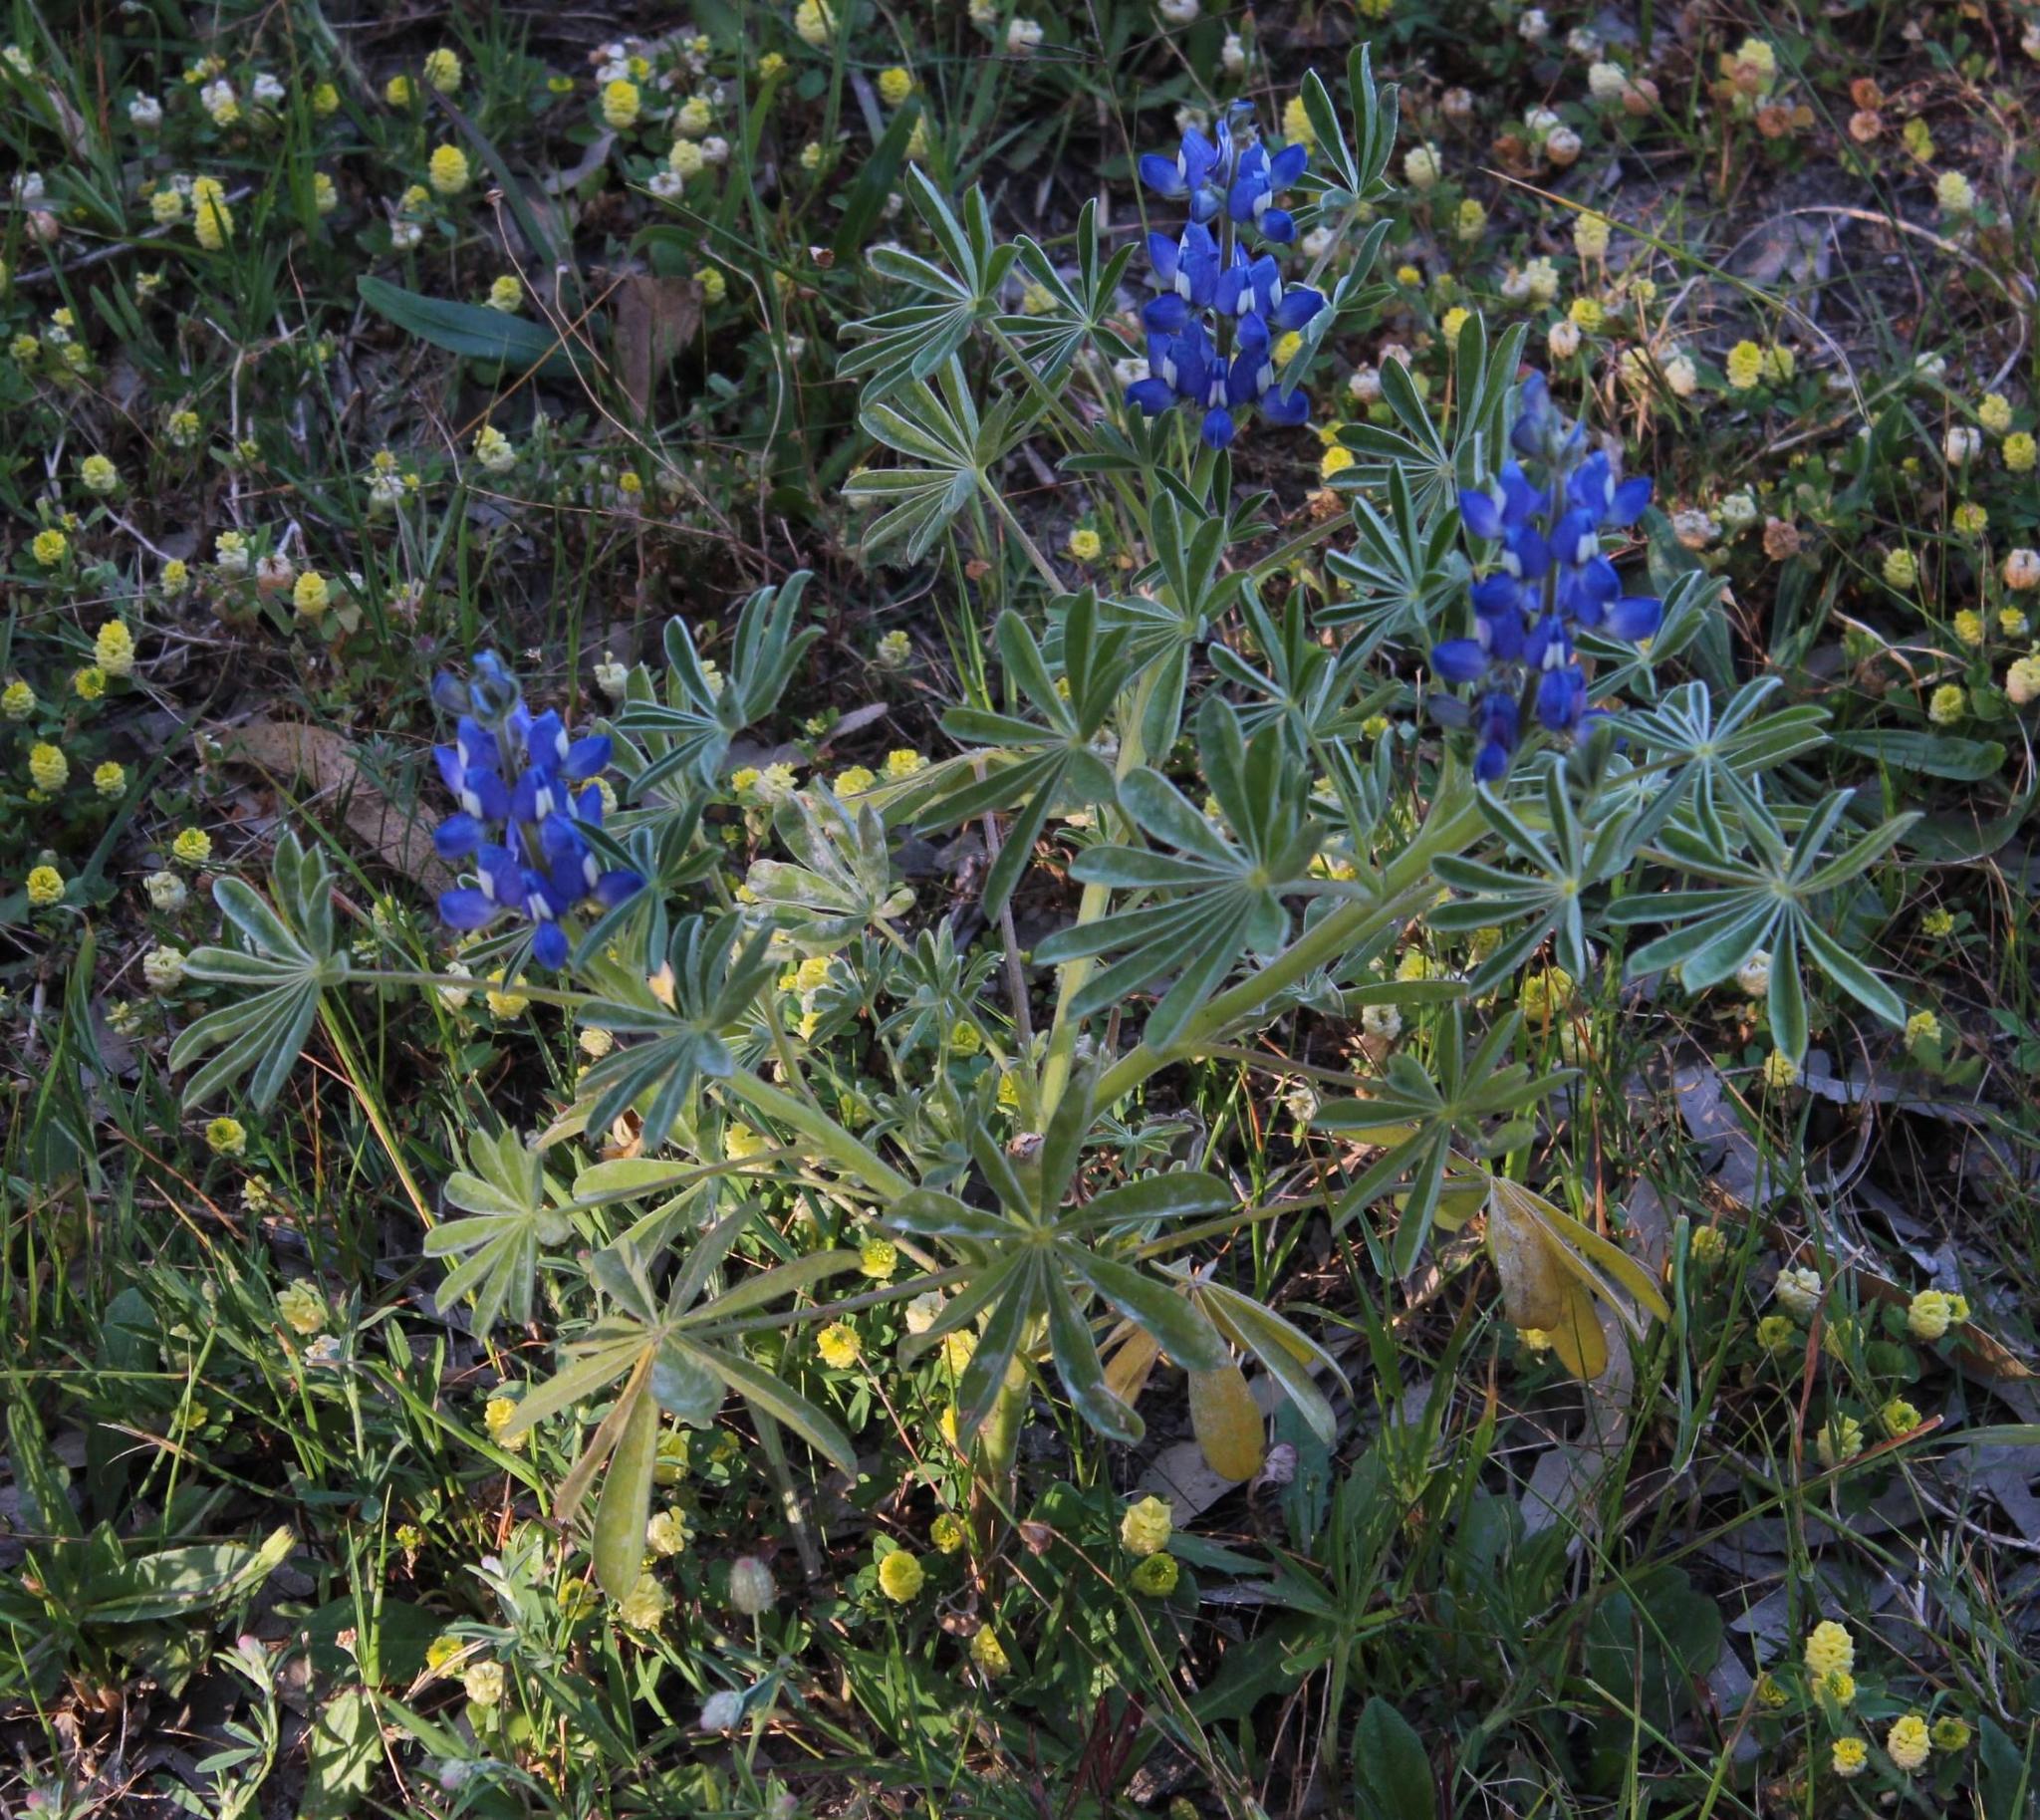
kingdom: Plantae
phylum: Tracheophyta
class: Magnoliopsida
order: Fabales
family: Fabaceae
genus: Lupinus
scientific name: Lupinus cosentinii
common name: Hairy blue lupin
